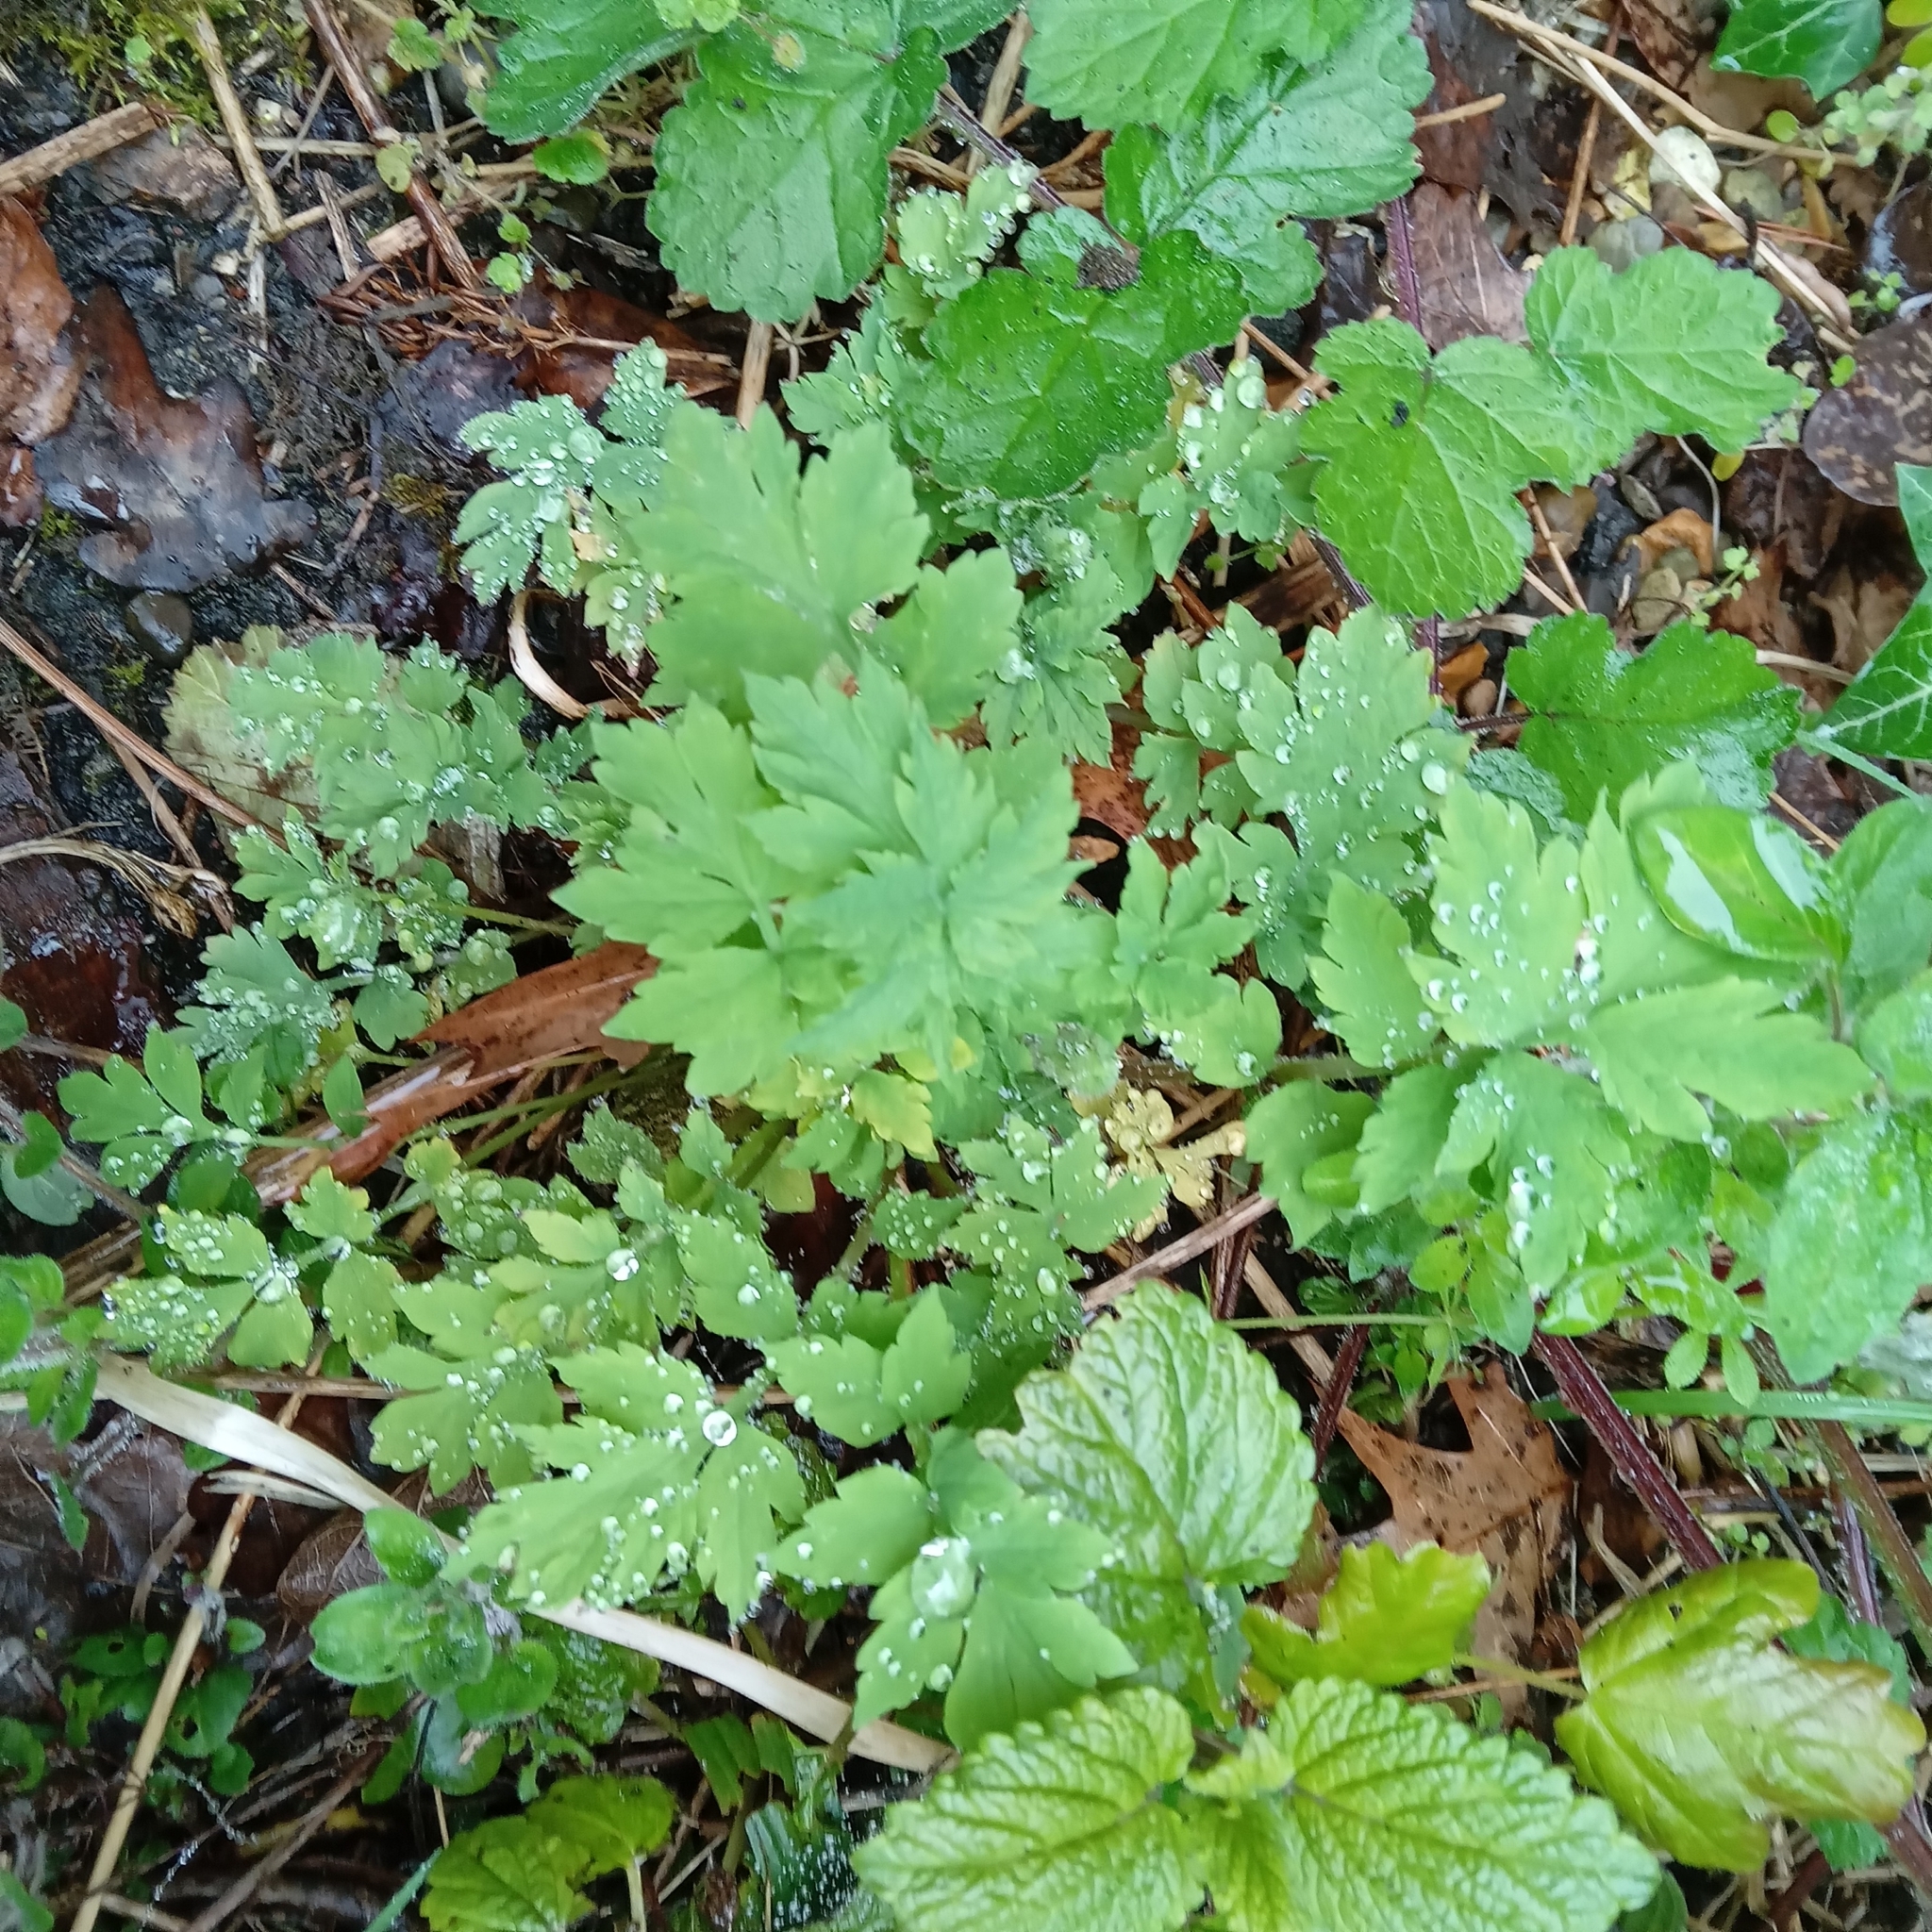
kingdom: Plantae
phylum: Tracheophyta
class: Magnoliopsida
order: Ranunculales
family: Papaveraceae
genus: Papaver
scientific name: Papaver cambricum
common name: Poppy
